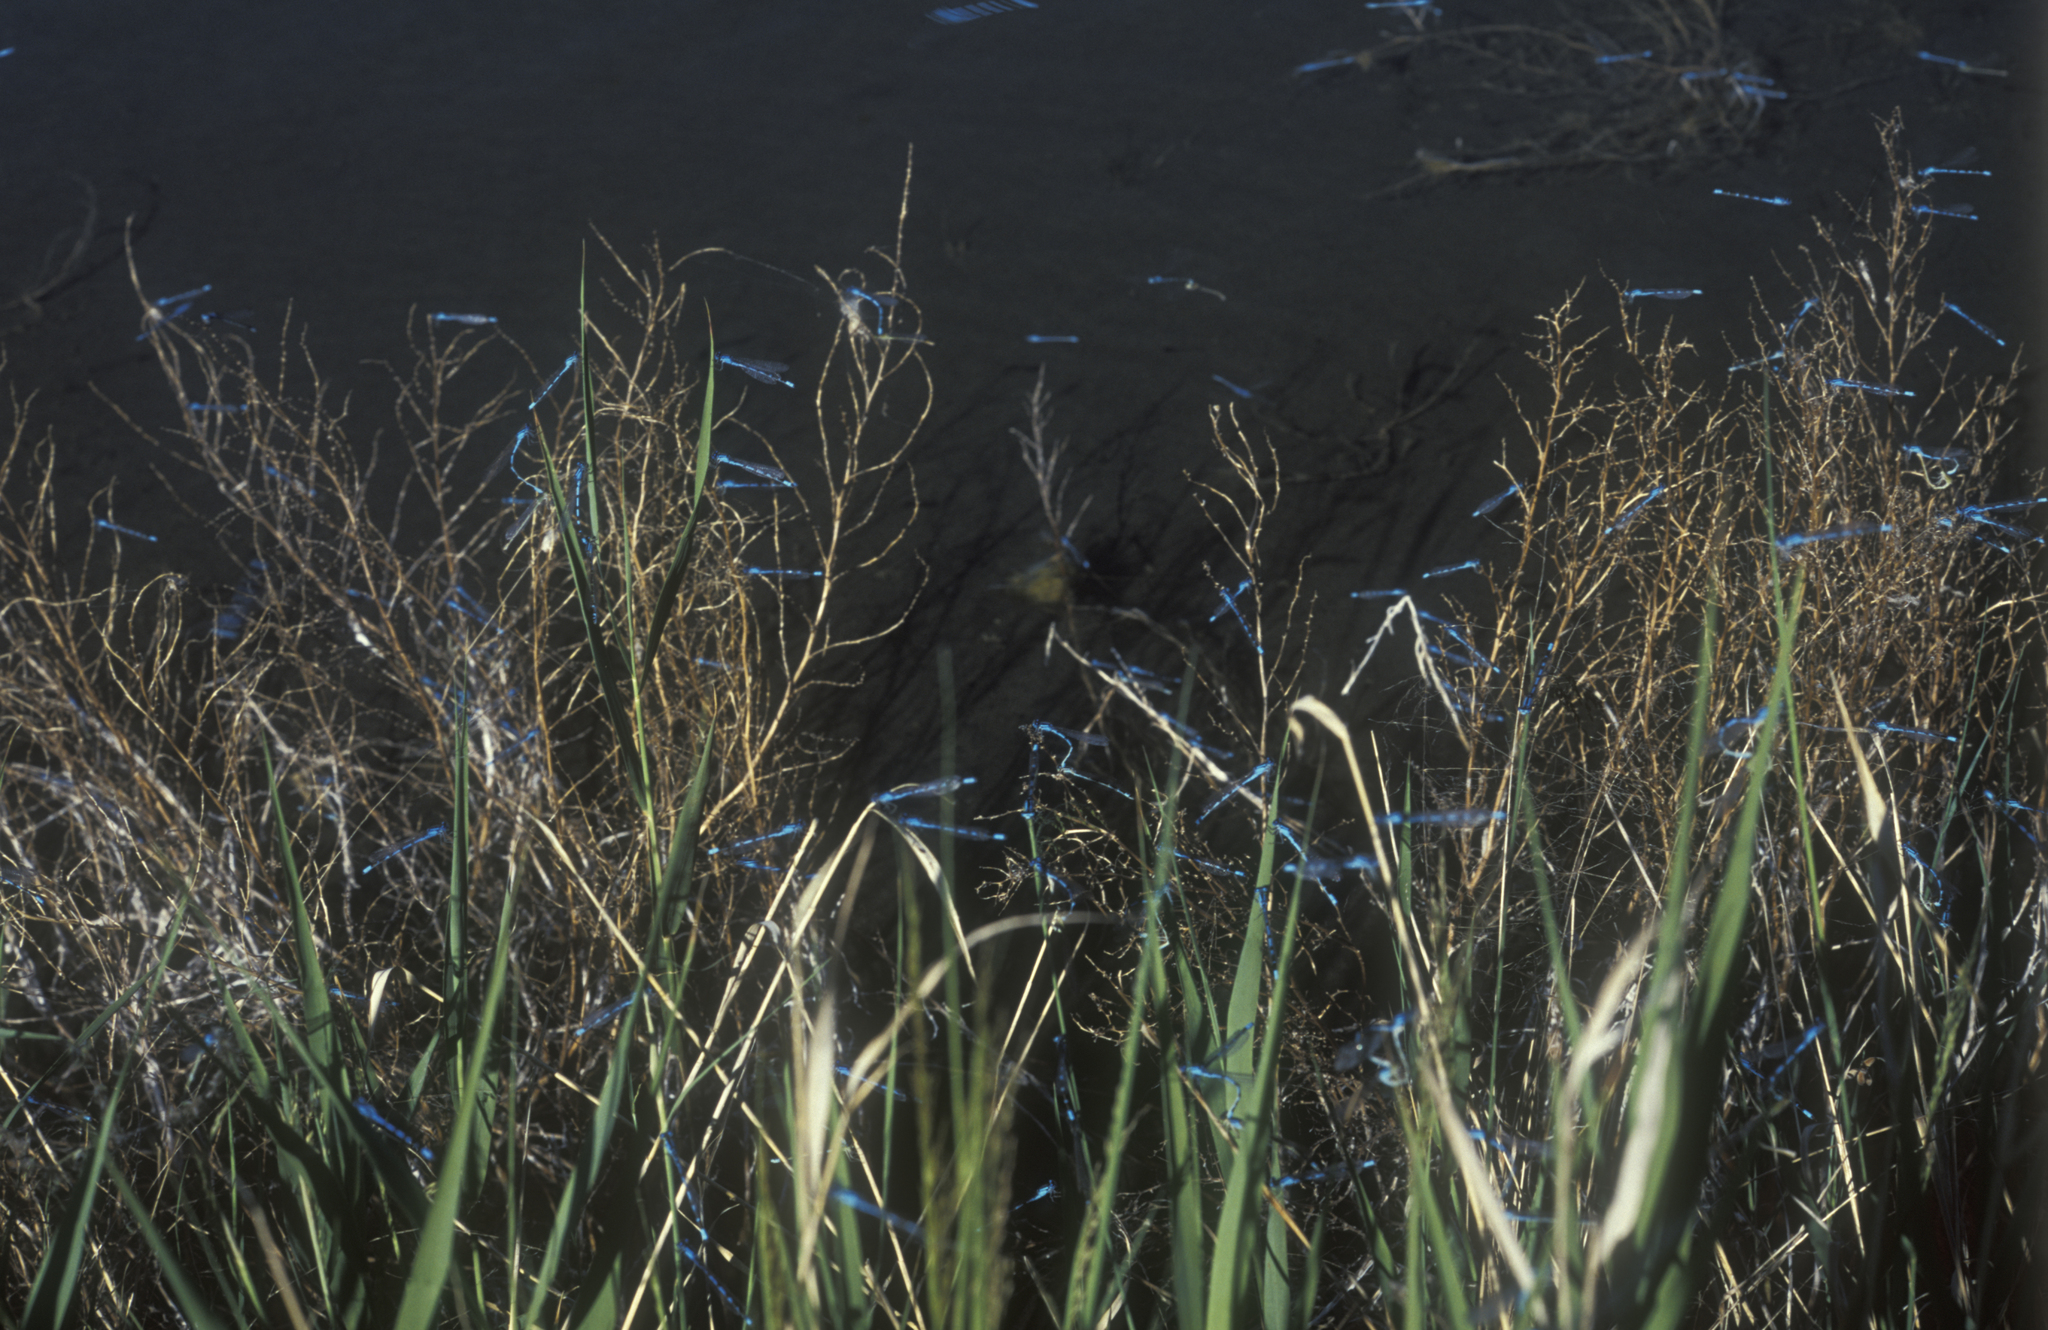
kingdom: Animalia
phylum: Arthropoda
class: Insecta
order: Odonata
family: Coenagrionidae
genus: Enallagma
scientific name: Enallagma cyathigerum
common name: Common blue damselfly
